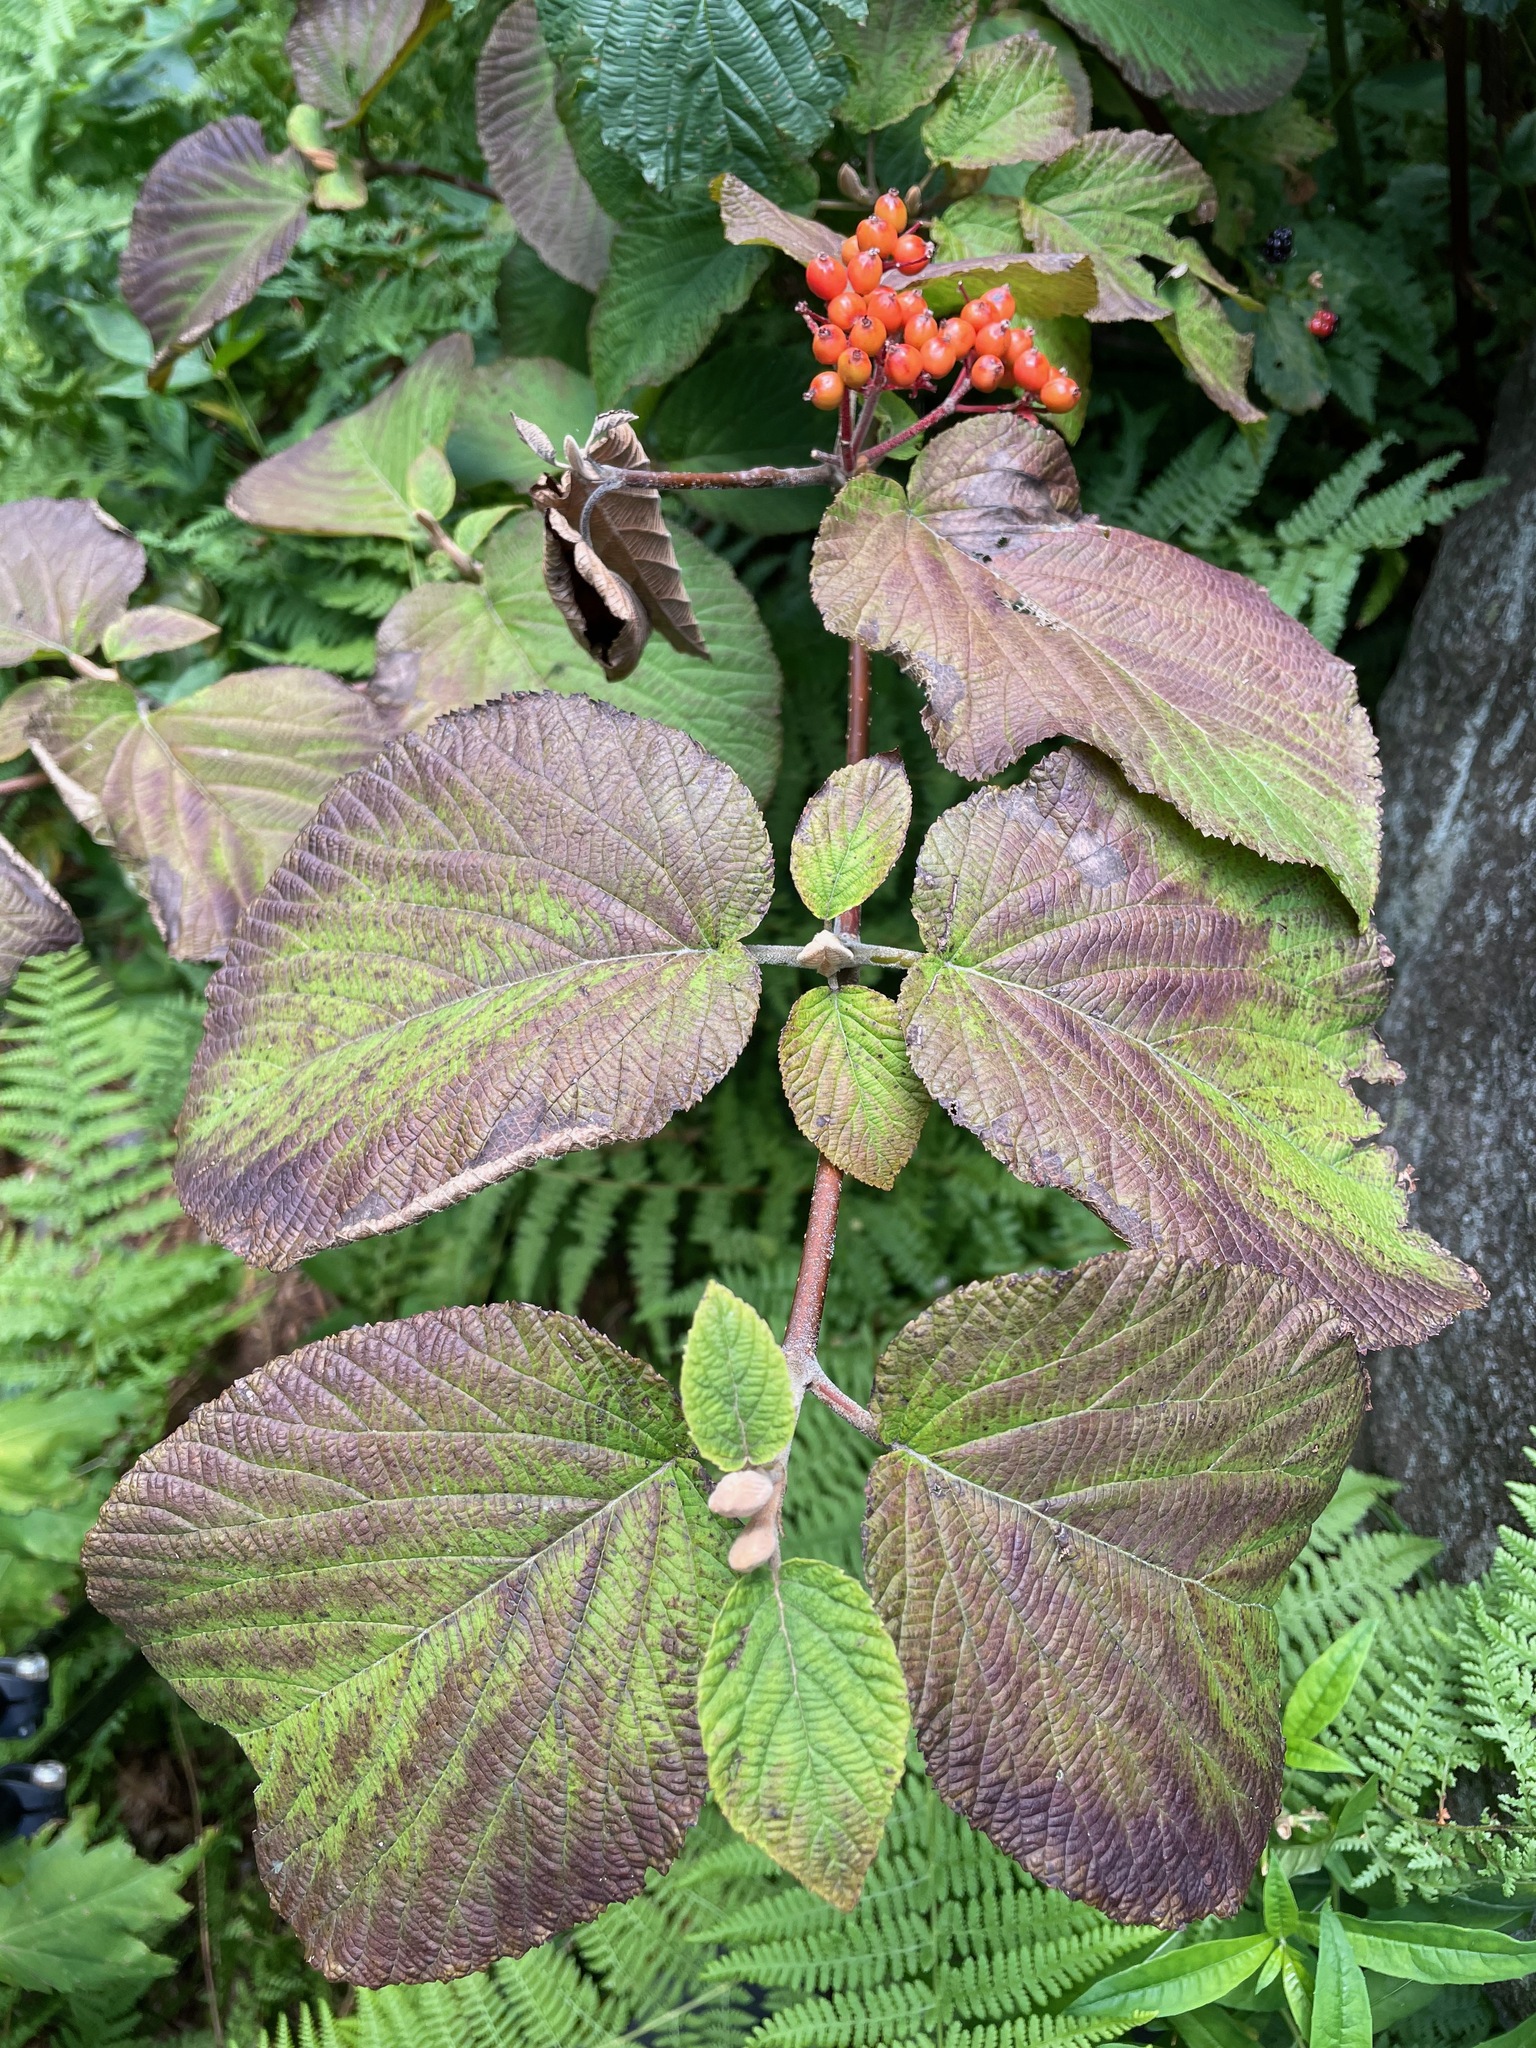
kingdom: Plantae
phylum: Tracheophyta
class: Magnoliopsida
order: Dipsacales
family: Viburnaceae
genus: Viburnum
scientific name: Viburnum lantanoides
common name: Hobblebush
